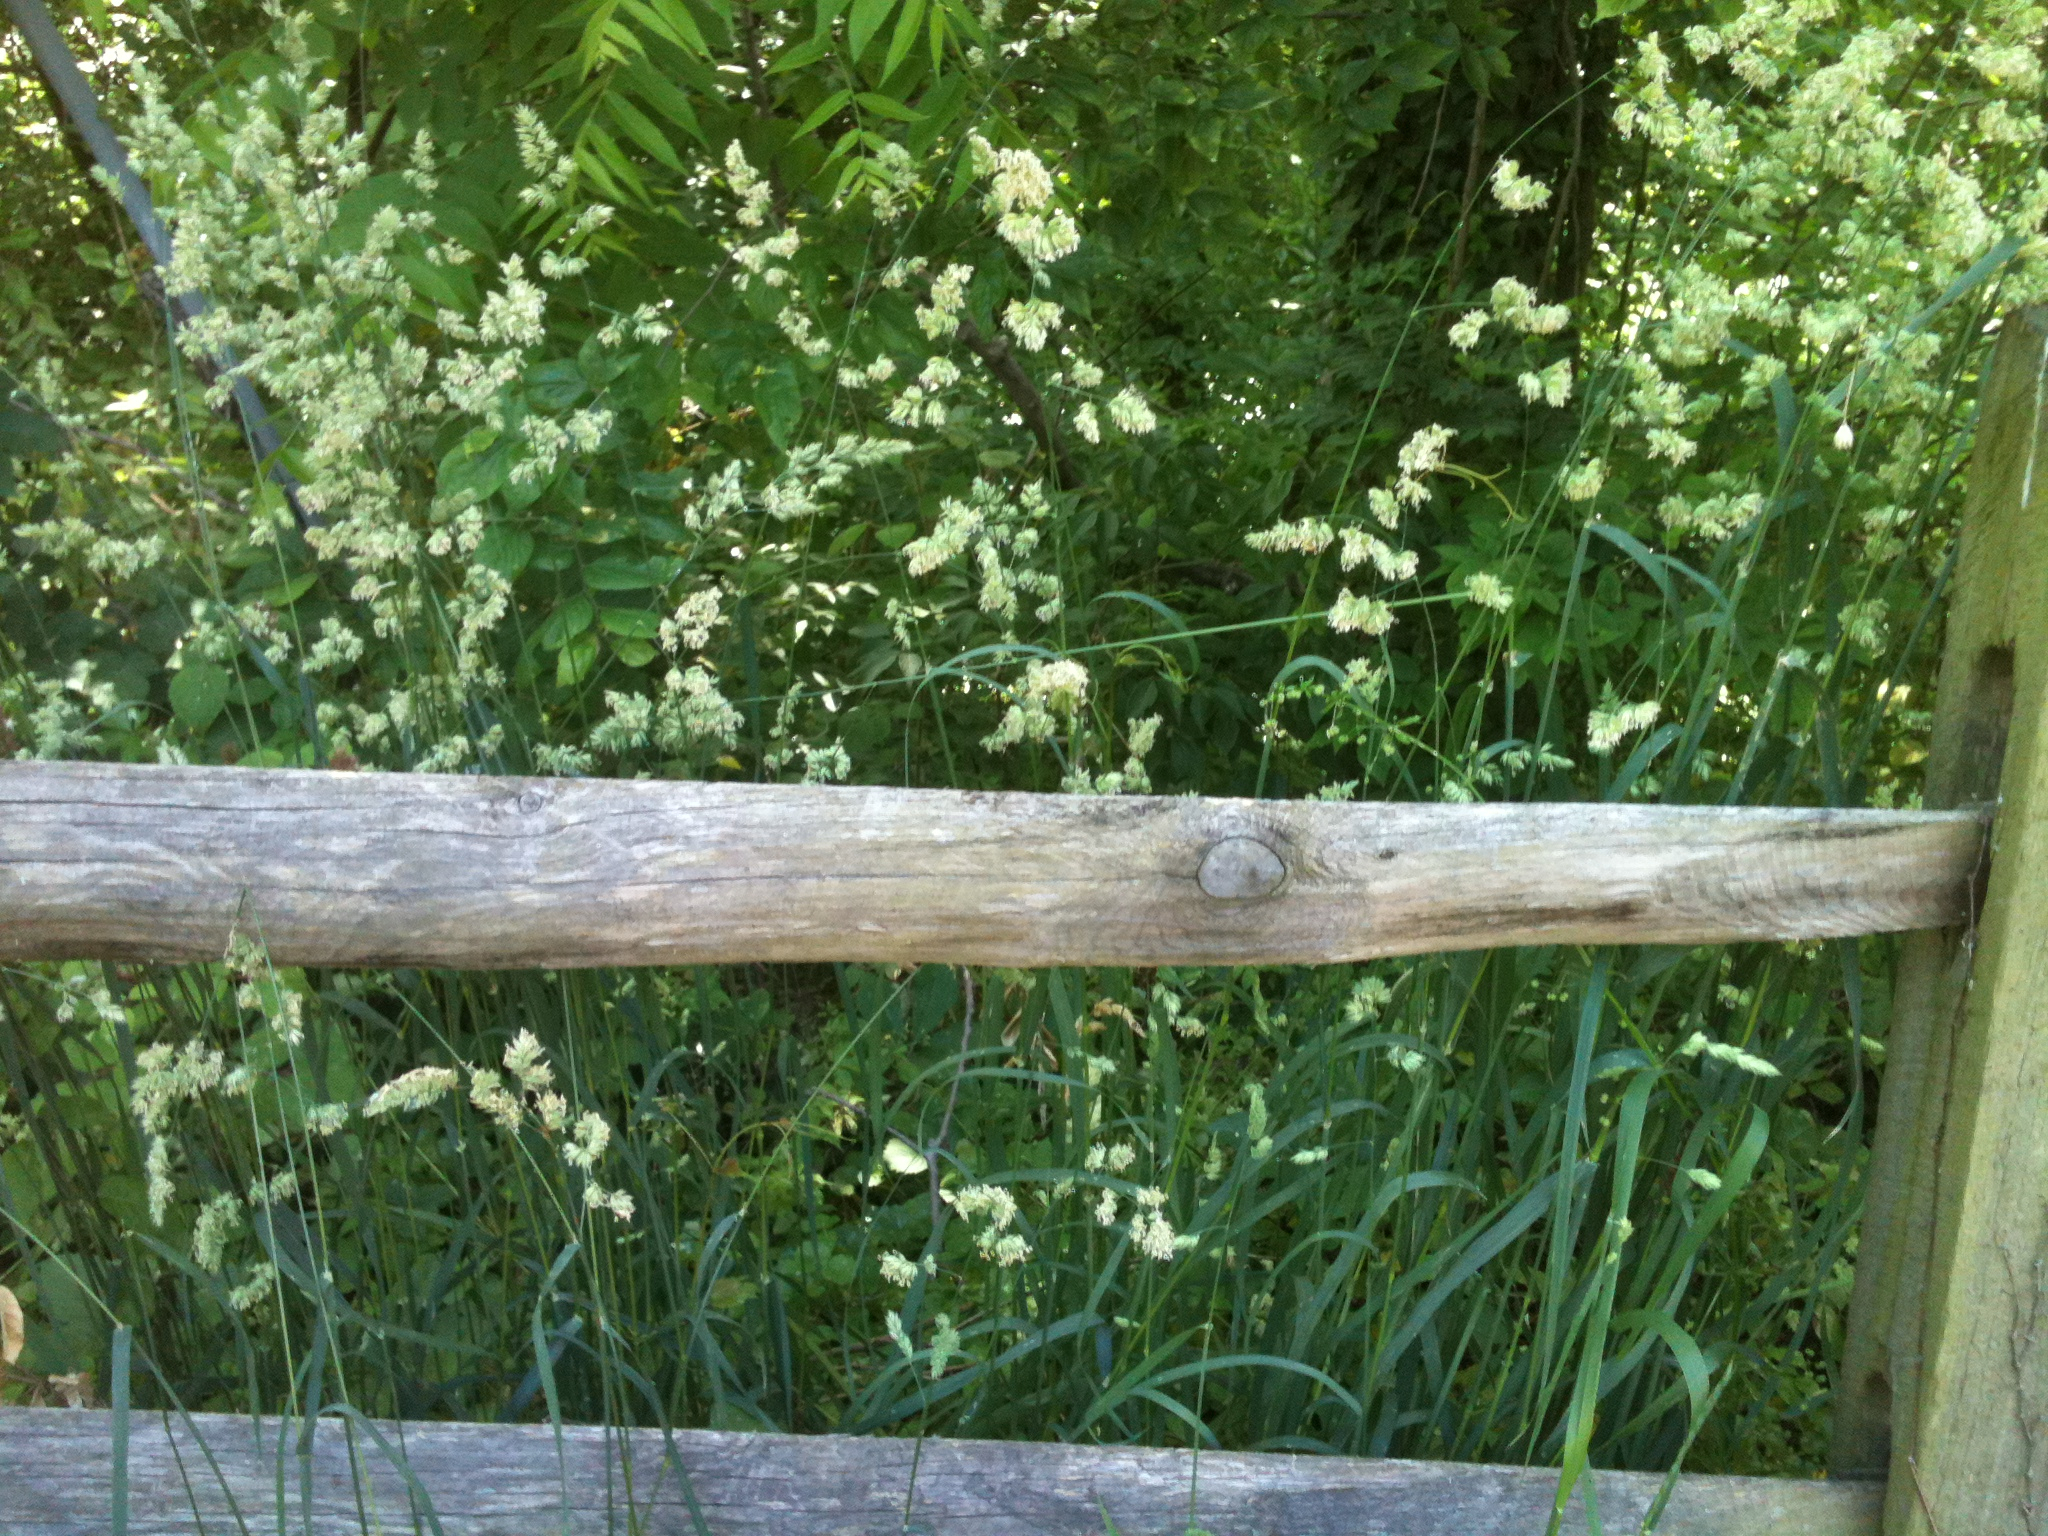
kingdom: Plantae
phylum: Tracheophyta
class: Liliopsida
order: Poales
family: Poaceae
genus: Dactylis
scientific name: Dactylis glomerata
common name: Orchardgrass
